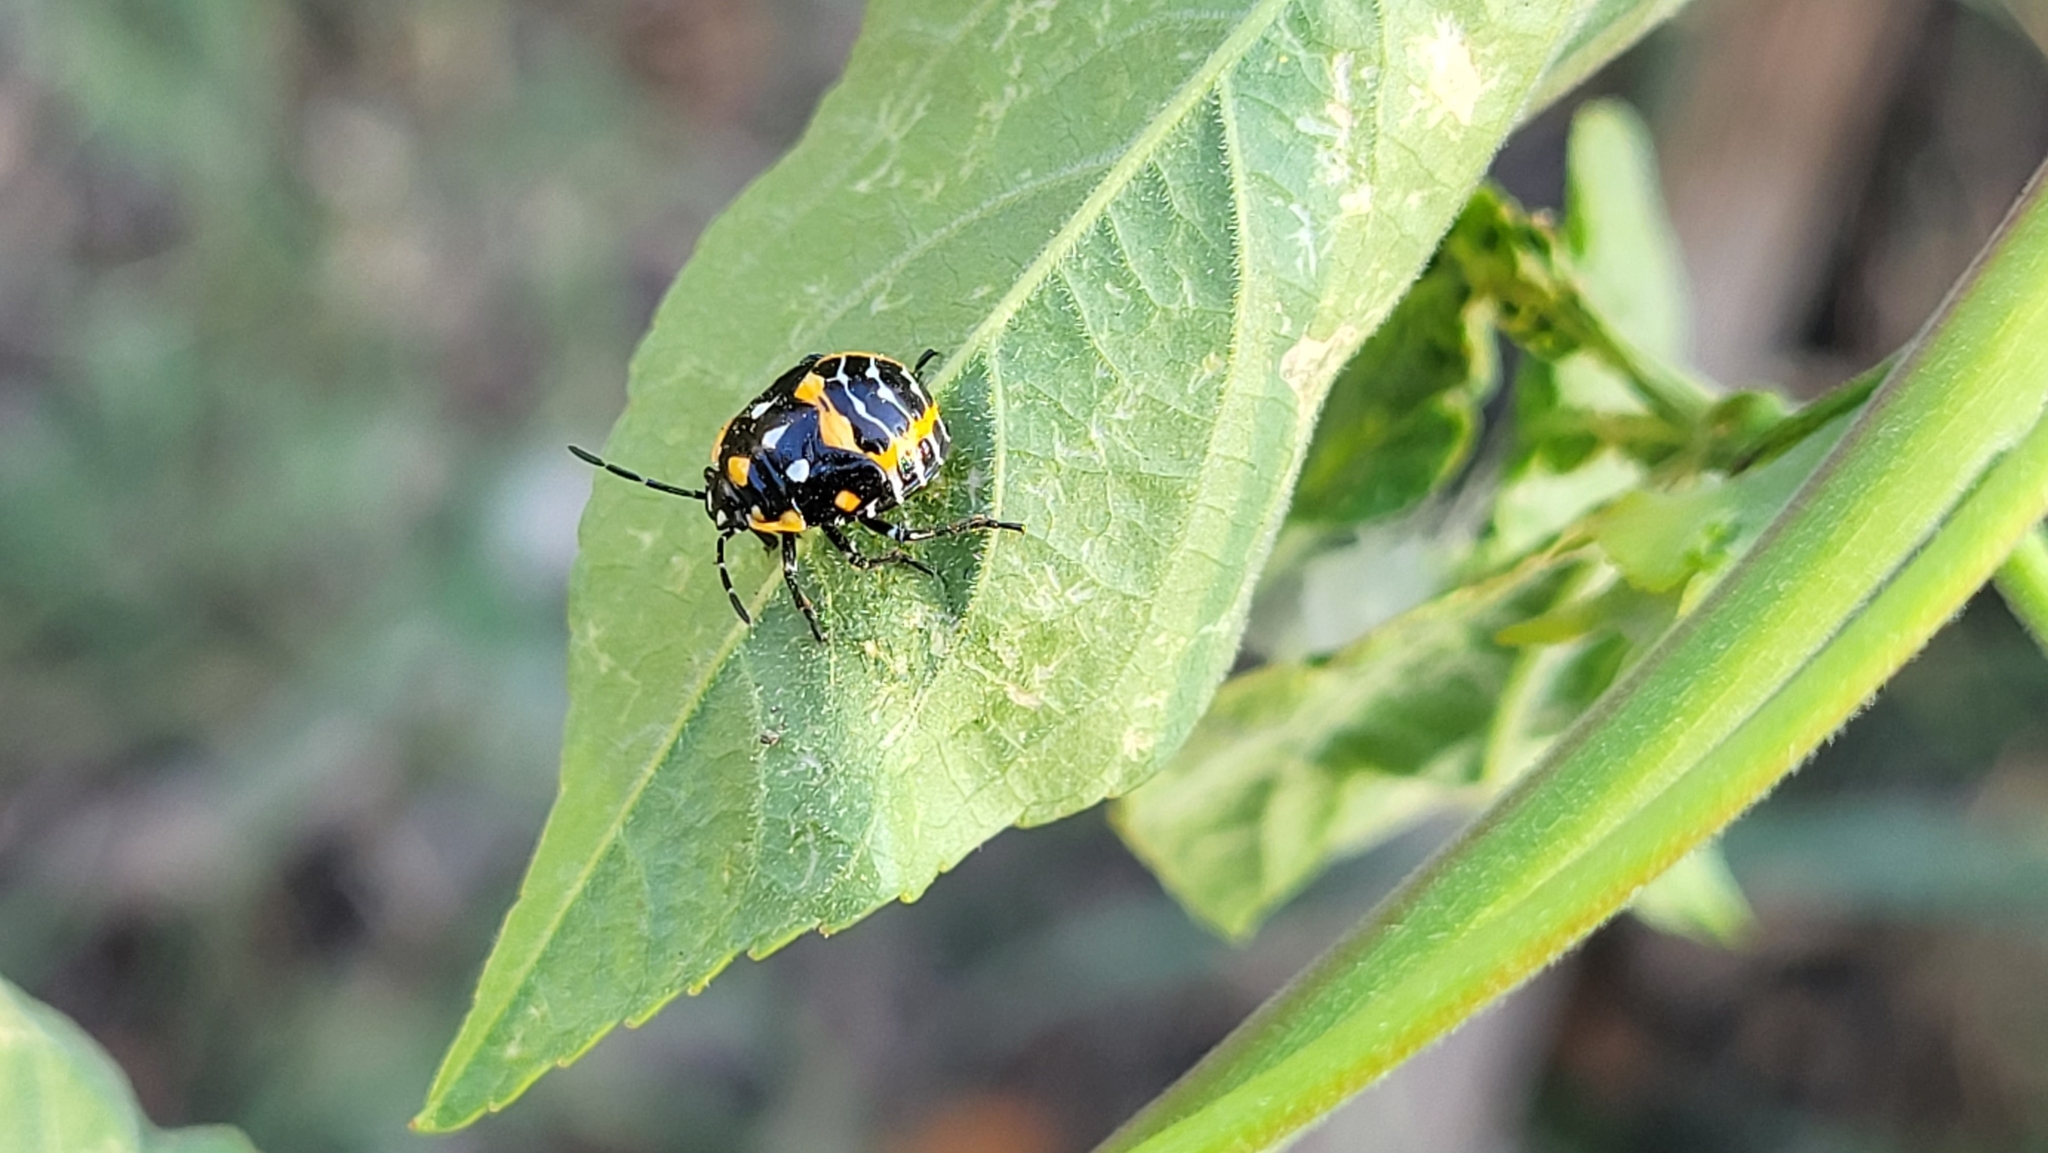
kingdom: Animalia
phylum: Arthropoda
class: Insecta
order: Hemiptera
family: Pentatomidae
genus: Murgantia
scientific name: Murgantia histrionica
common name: Harlequin bug
